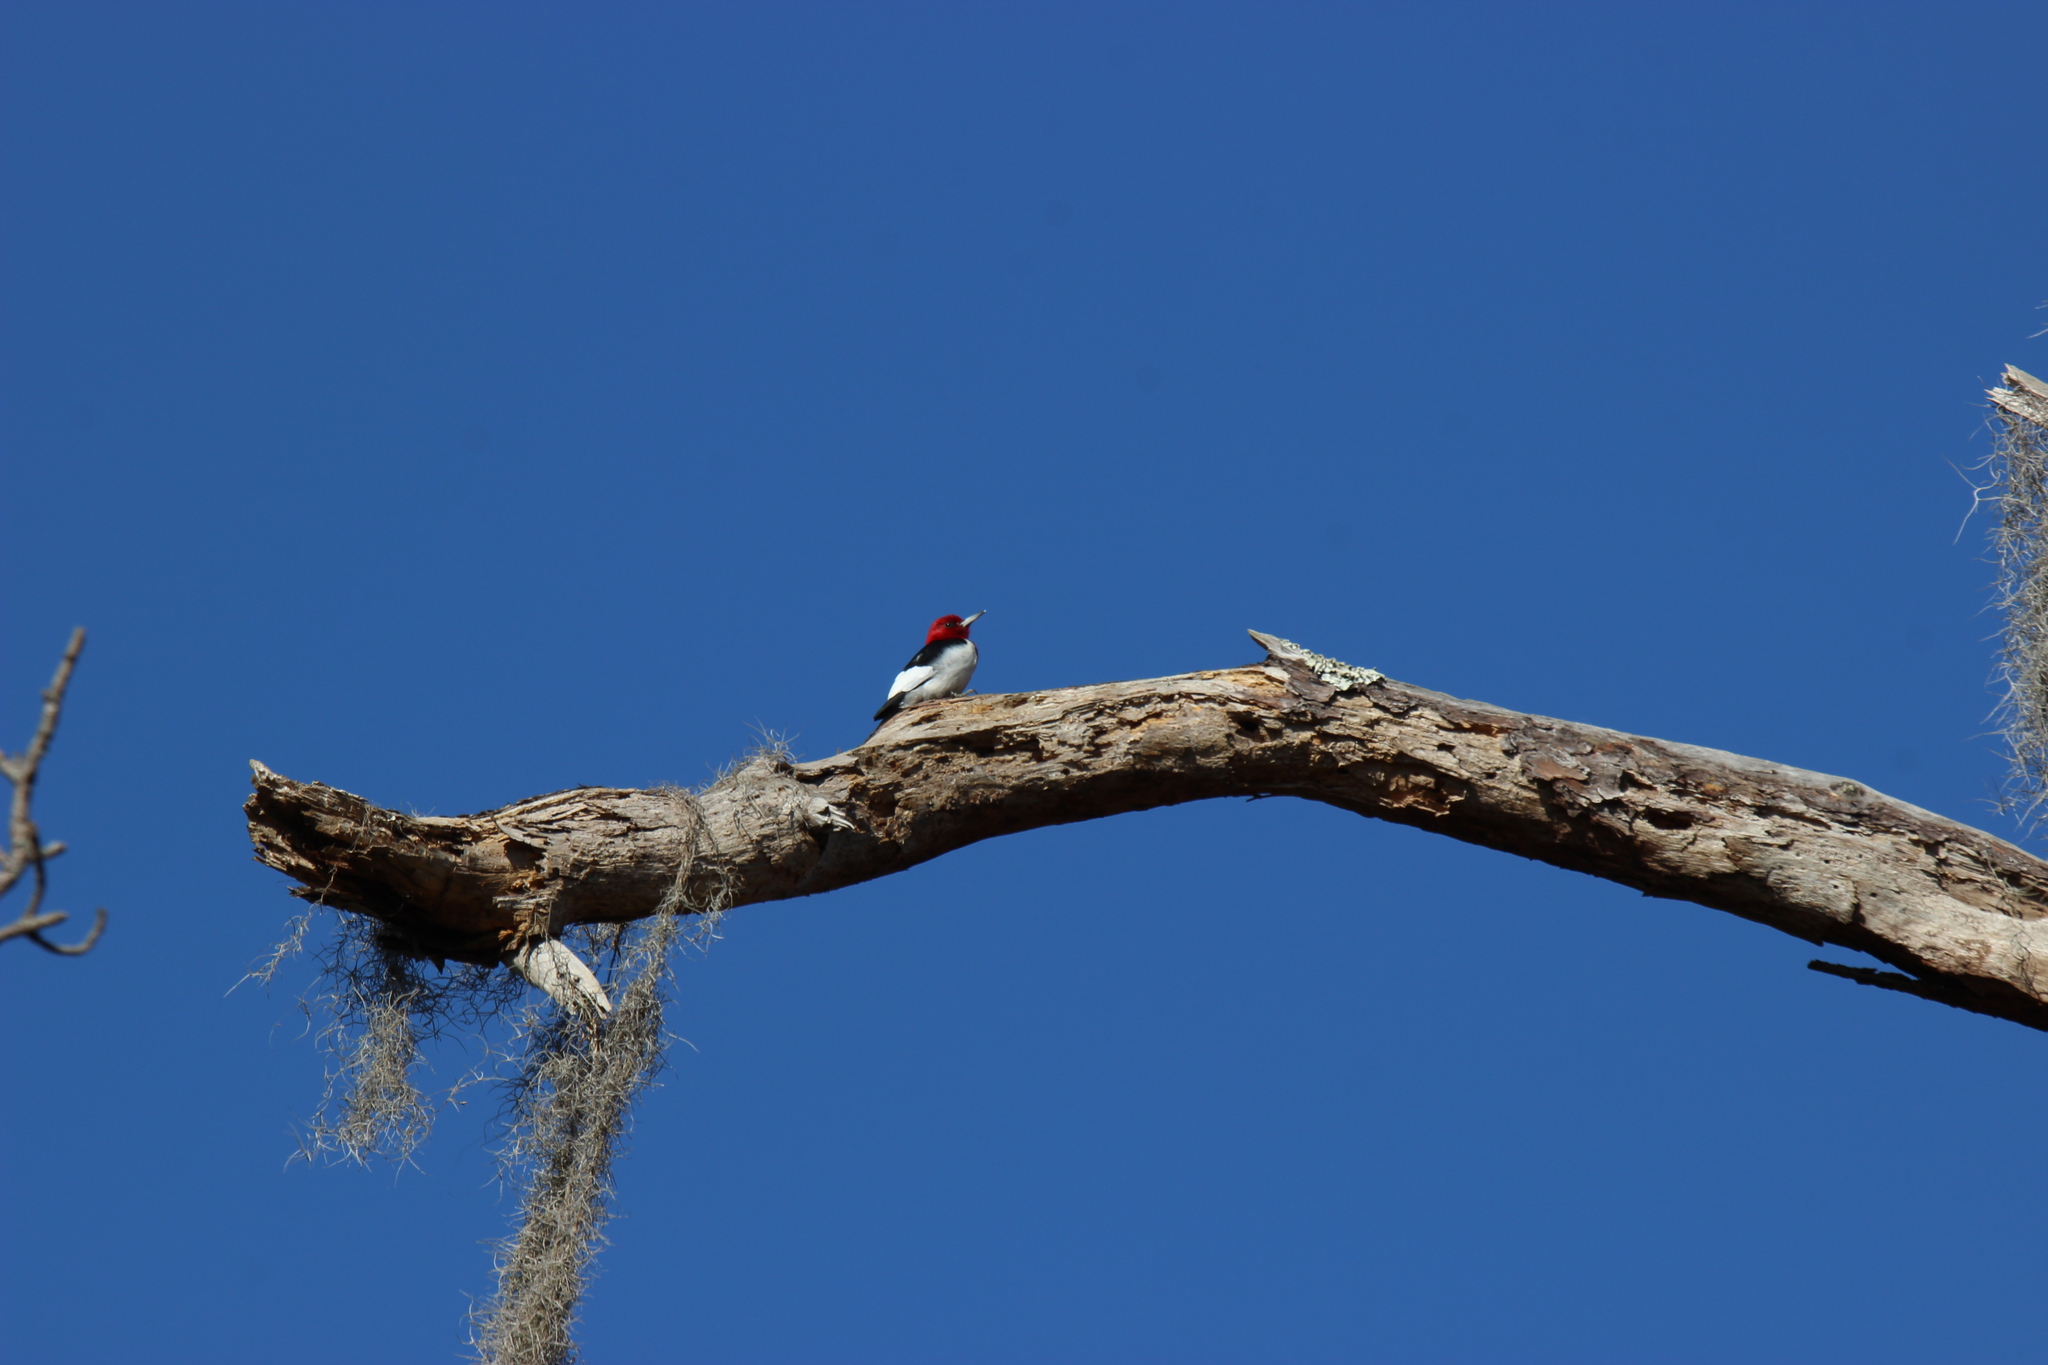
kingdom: Animalia
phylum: Chordata
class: Aves
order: Piciformes
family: Picidae
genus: Melanerpes
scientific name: Melanerpes erythrocephalus
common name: Red-headed woodpecker
